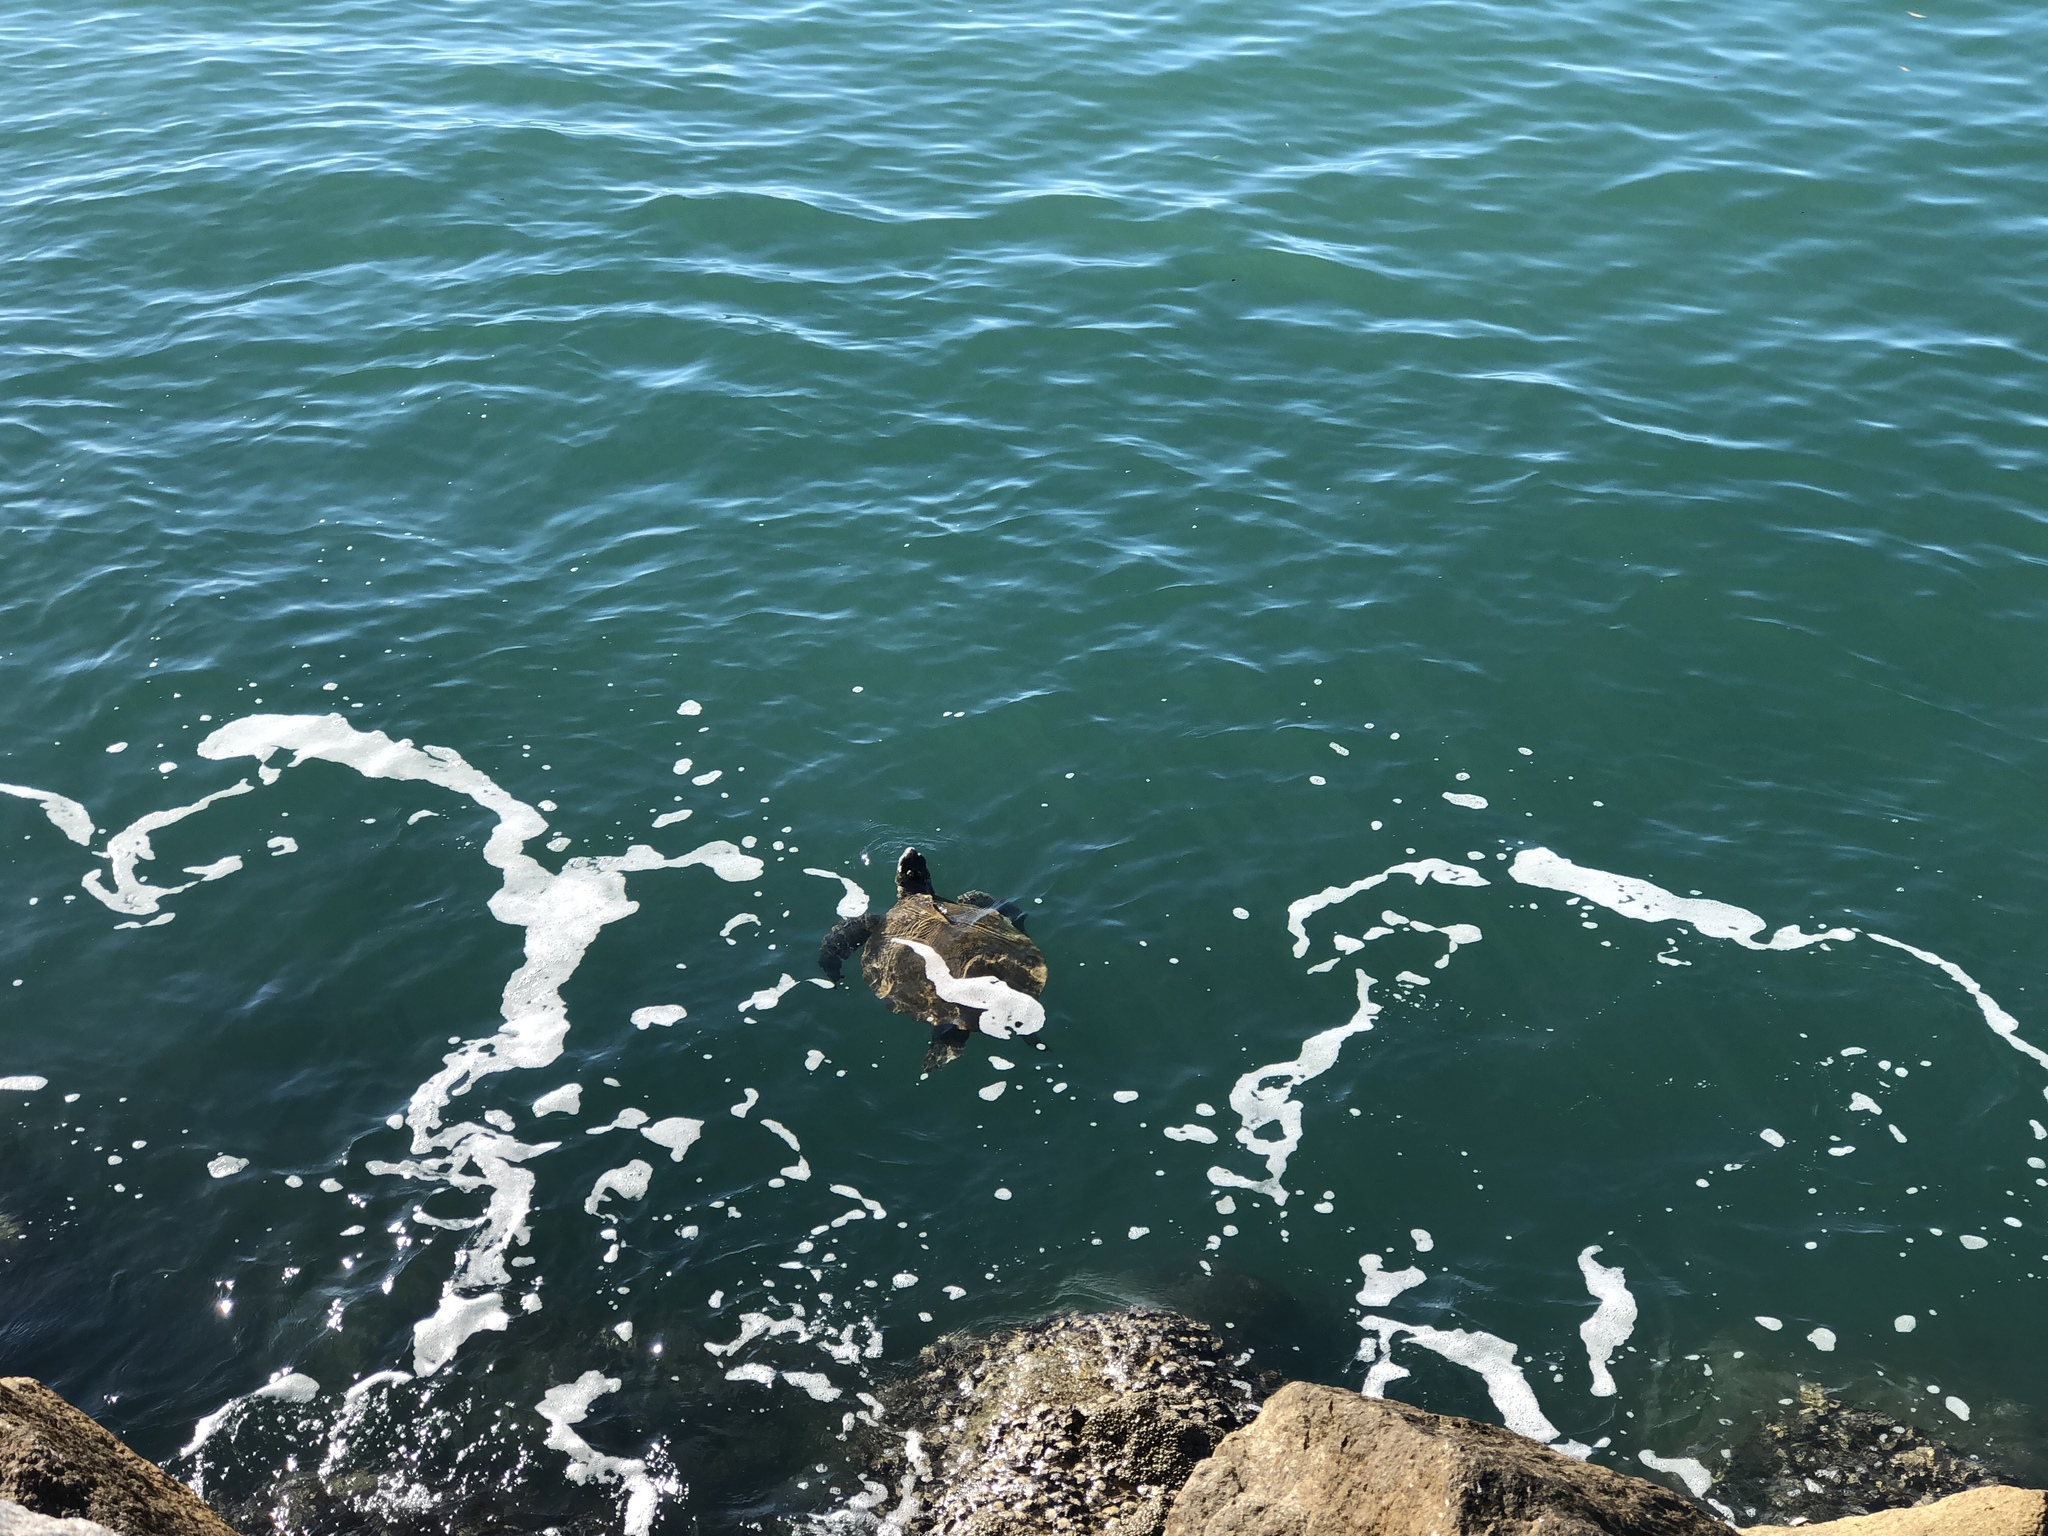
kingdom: Animalia
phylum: Chordata
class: Testudines
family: Cheloniidae
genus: Chelonia
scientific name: Chelonia mydas
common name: Green turtle
